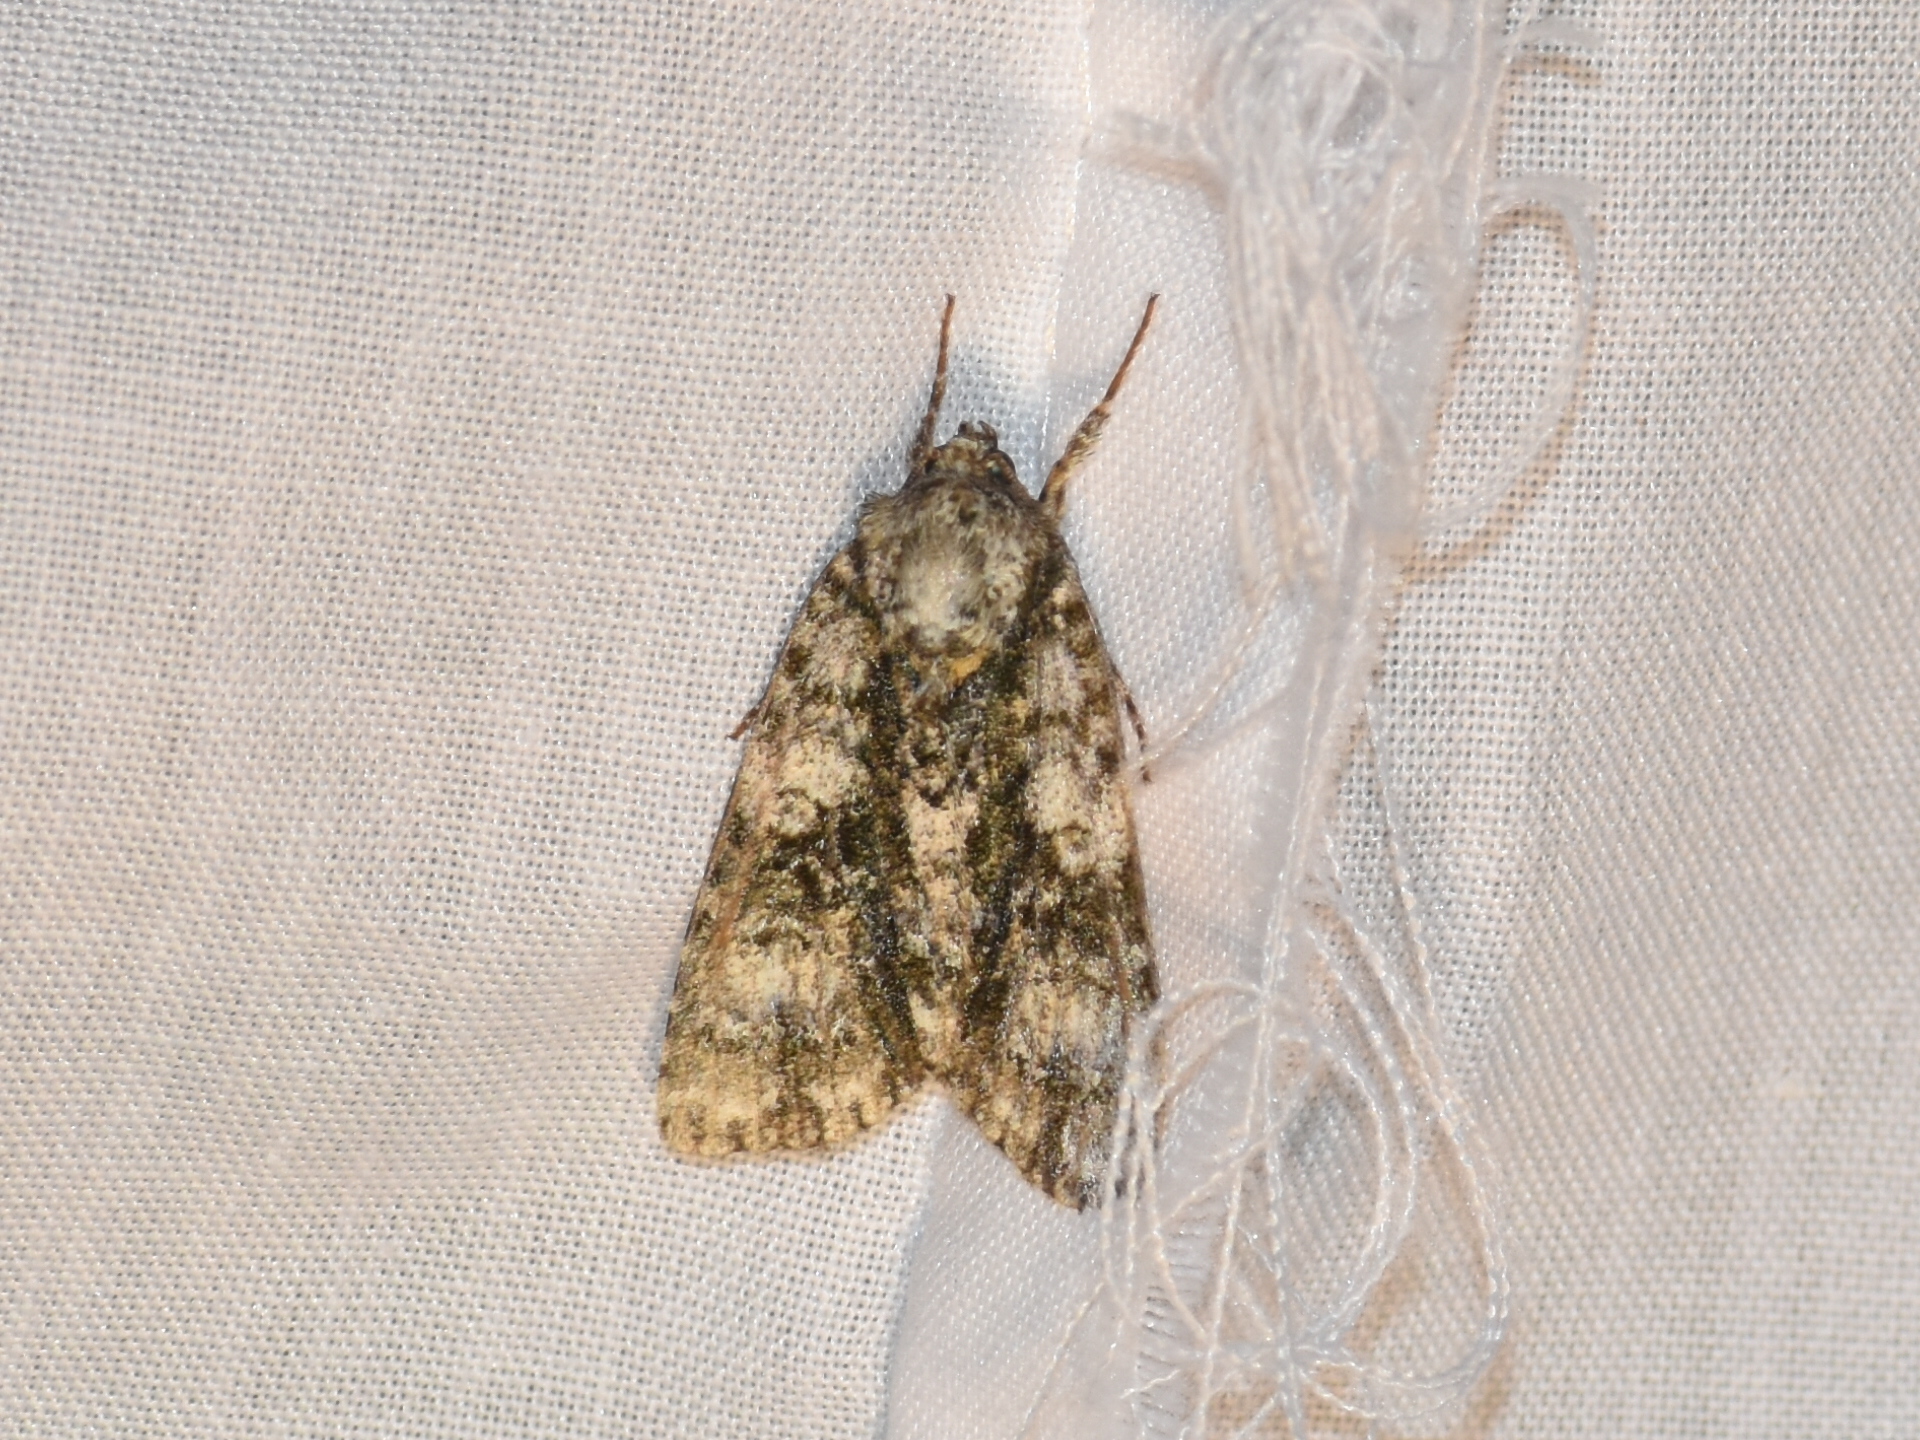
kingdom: Animalia
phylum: Arthropoda
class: Insecta
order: Lepidoptera
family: Noctuidae
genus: Acronicta
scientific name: Acronicta superans
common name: Splendid dagger
